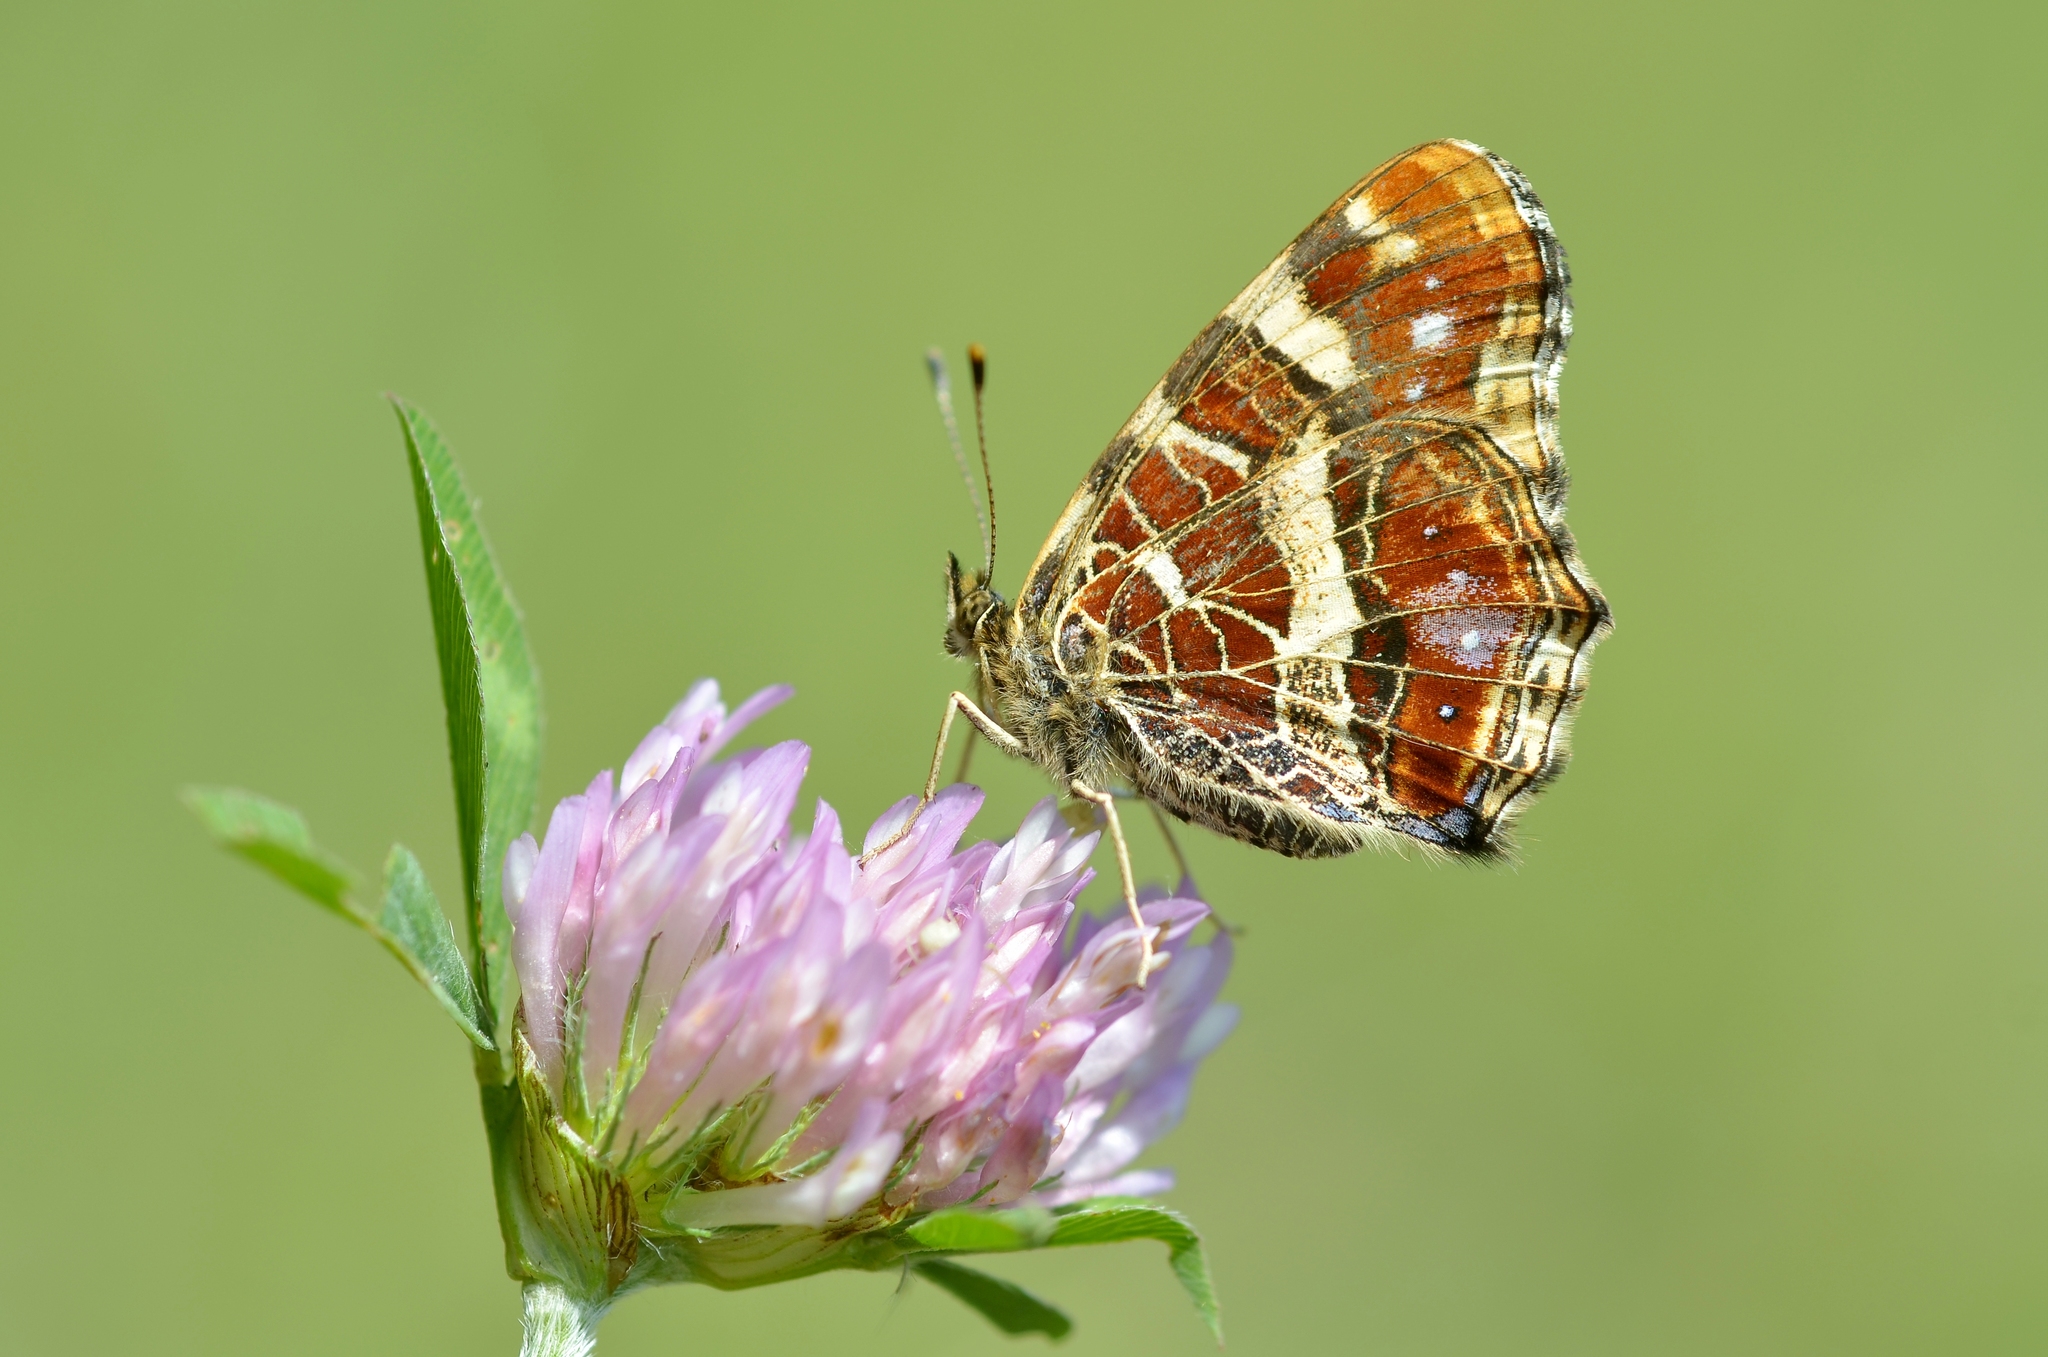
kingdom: Animalia
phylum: Arthropoda
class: Insecta
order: Lepidoptera
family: Nymphalidae
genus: Araschnia
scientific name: Araschnia levana
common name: Map butterfly
